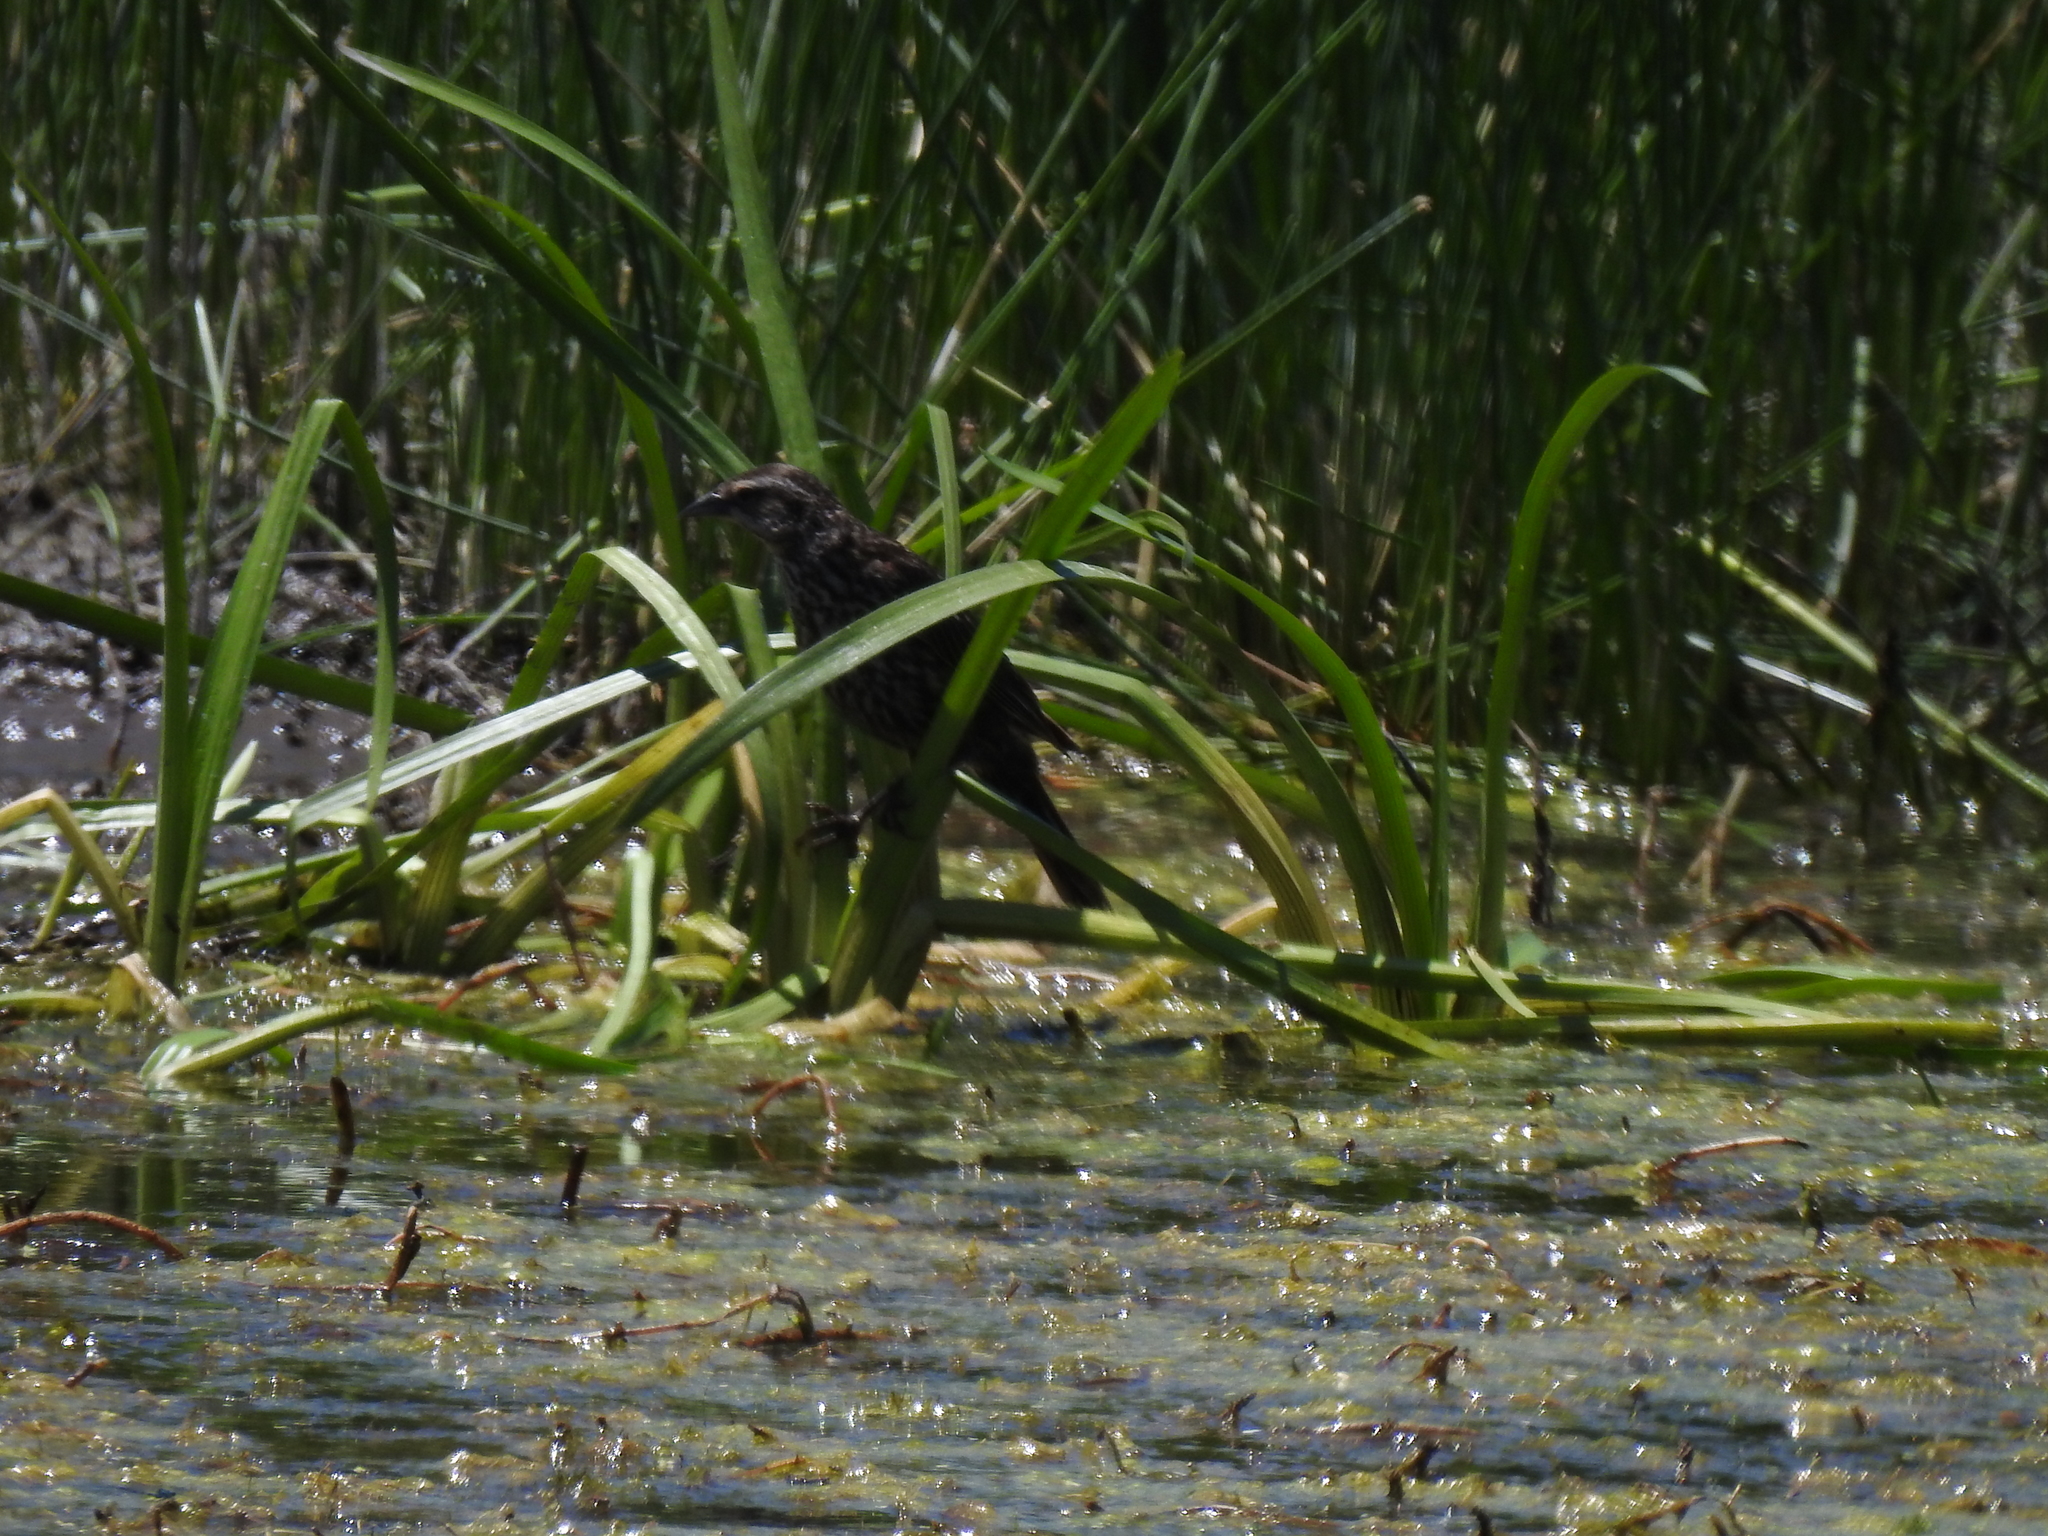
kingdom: Animalia
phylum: Chordata
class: Aves
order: Passeriformes
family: Icteridae
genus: Agelaius
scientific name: Agelaius phoeniceus
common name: Red-winged blackbird
